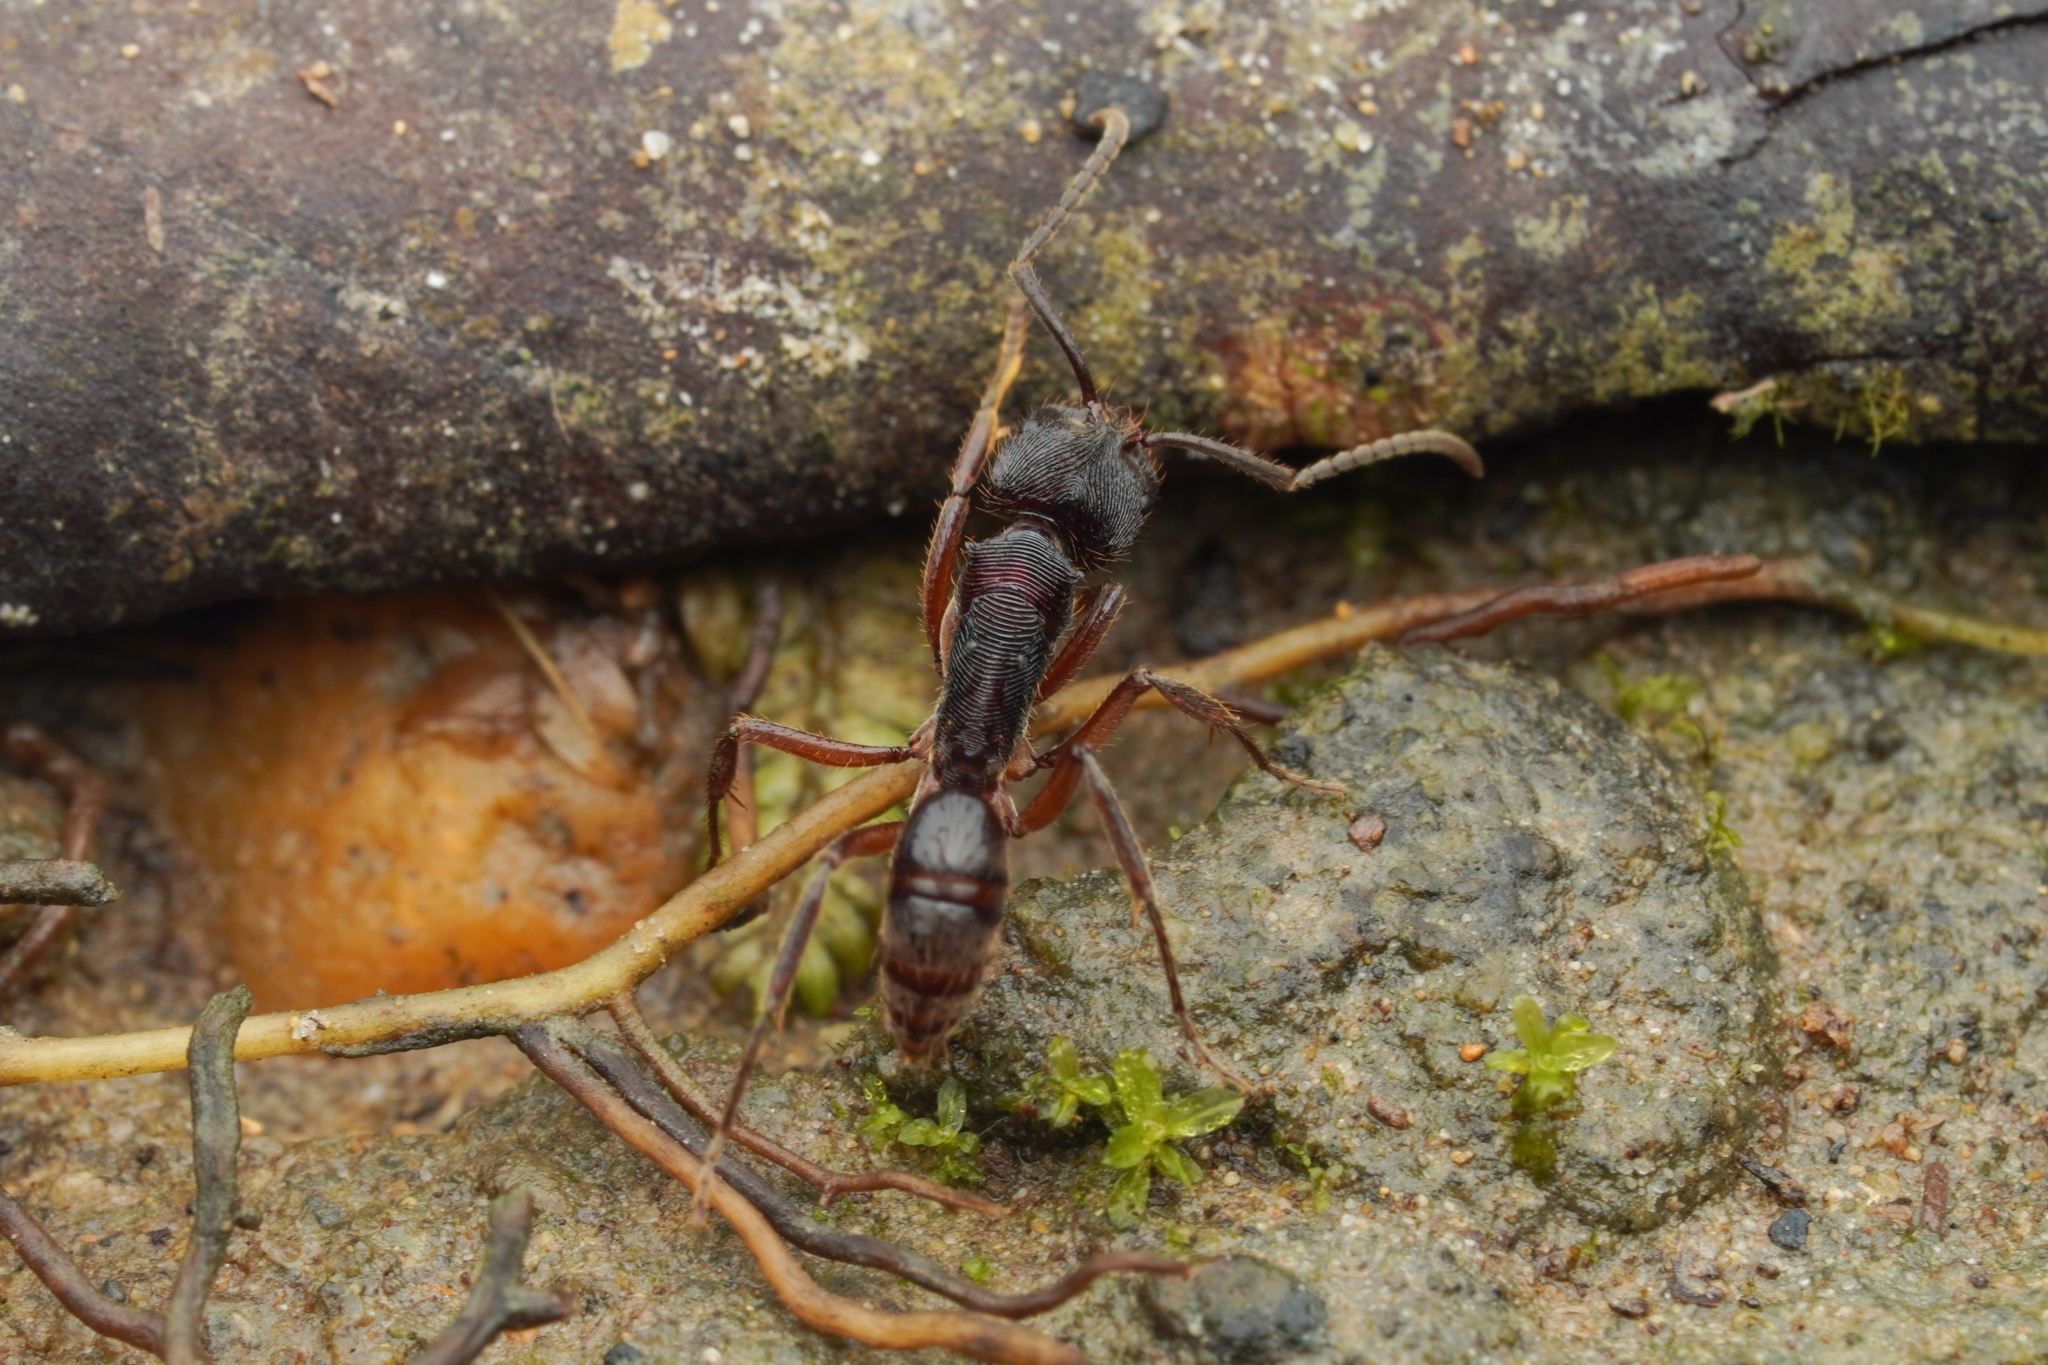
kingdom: Animalia
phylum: Arthropoda
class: Insecta
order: Hymenoptera
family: Formicidae
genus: Odontoponera
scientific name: Odontoponera transversa
